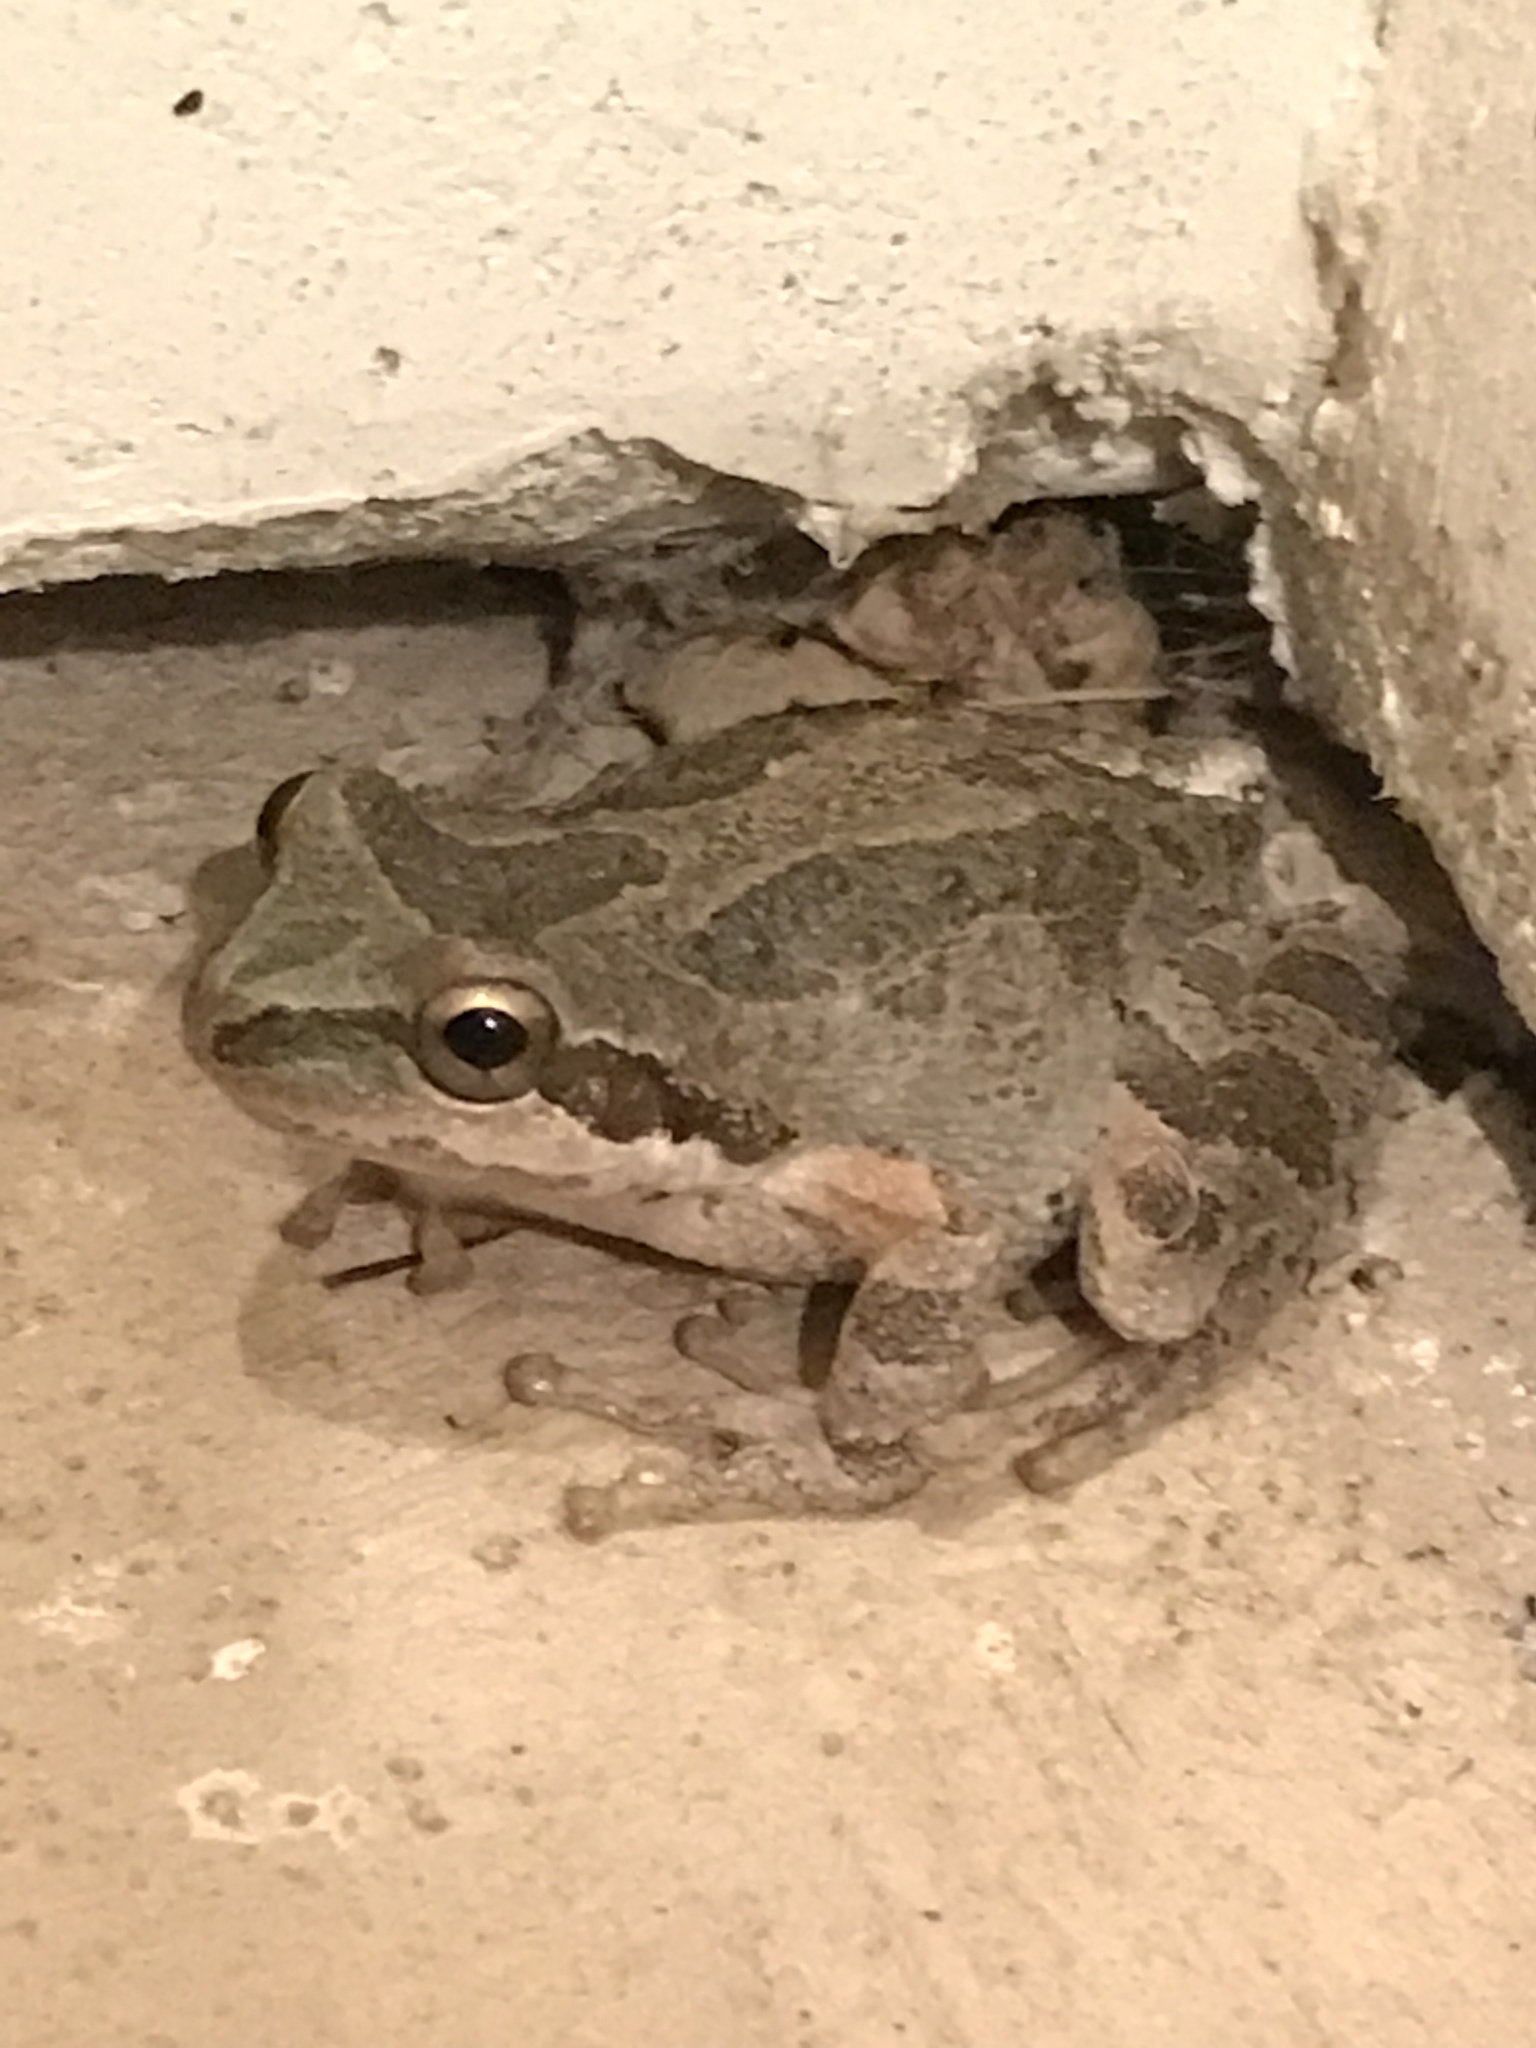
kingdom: Animalia
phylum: Chordata
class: Amphibia
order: Anura
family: Hylidae
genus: Pseudacris
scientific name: Pseudacris regilla
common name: Pacific chorus frog
